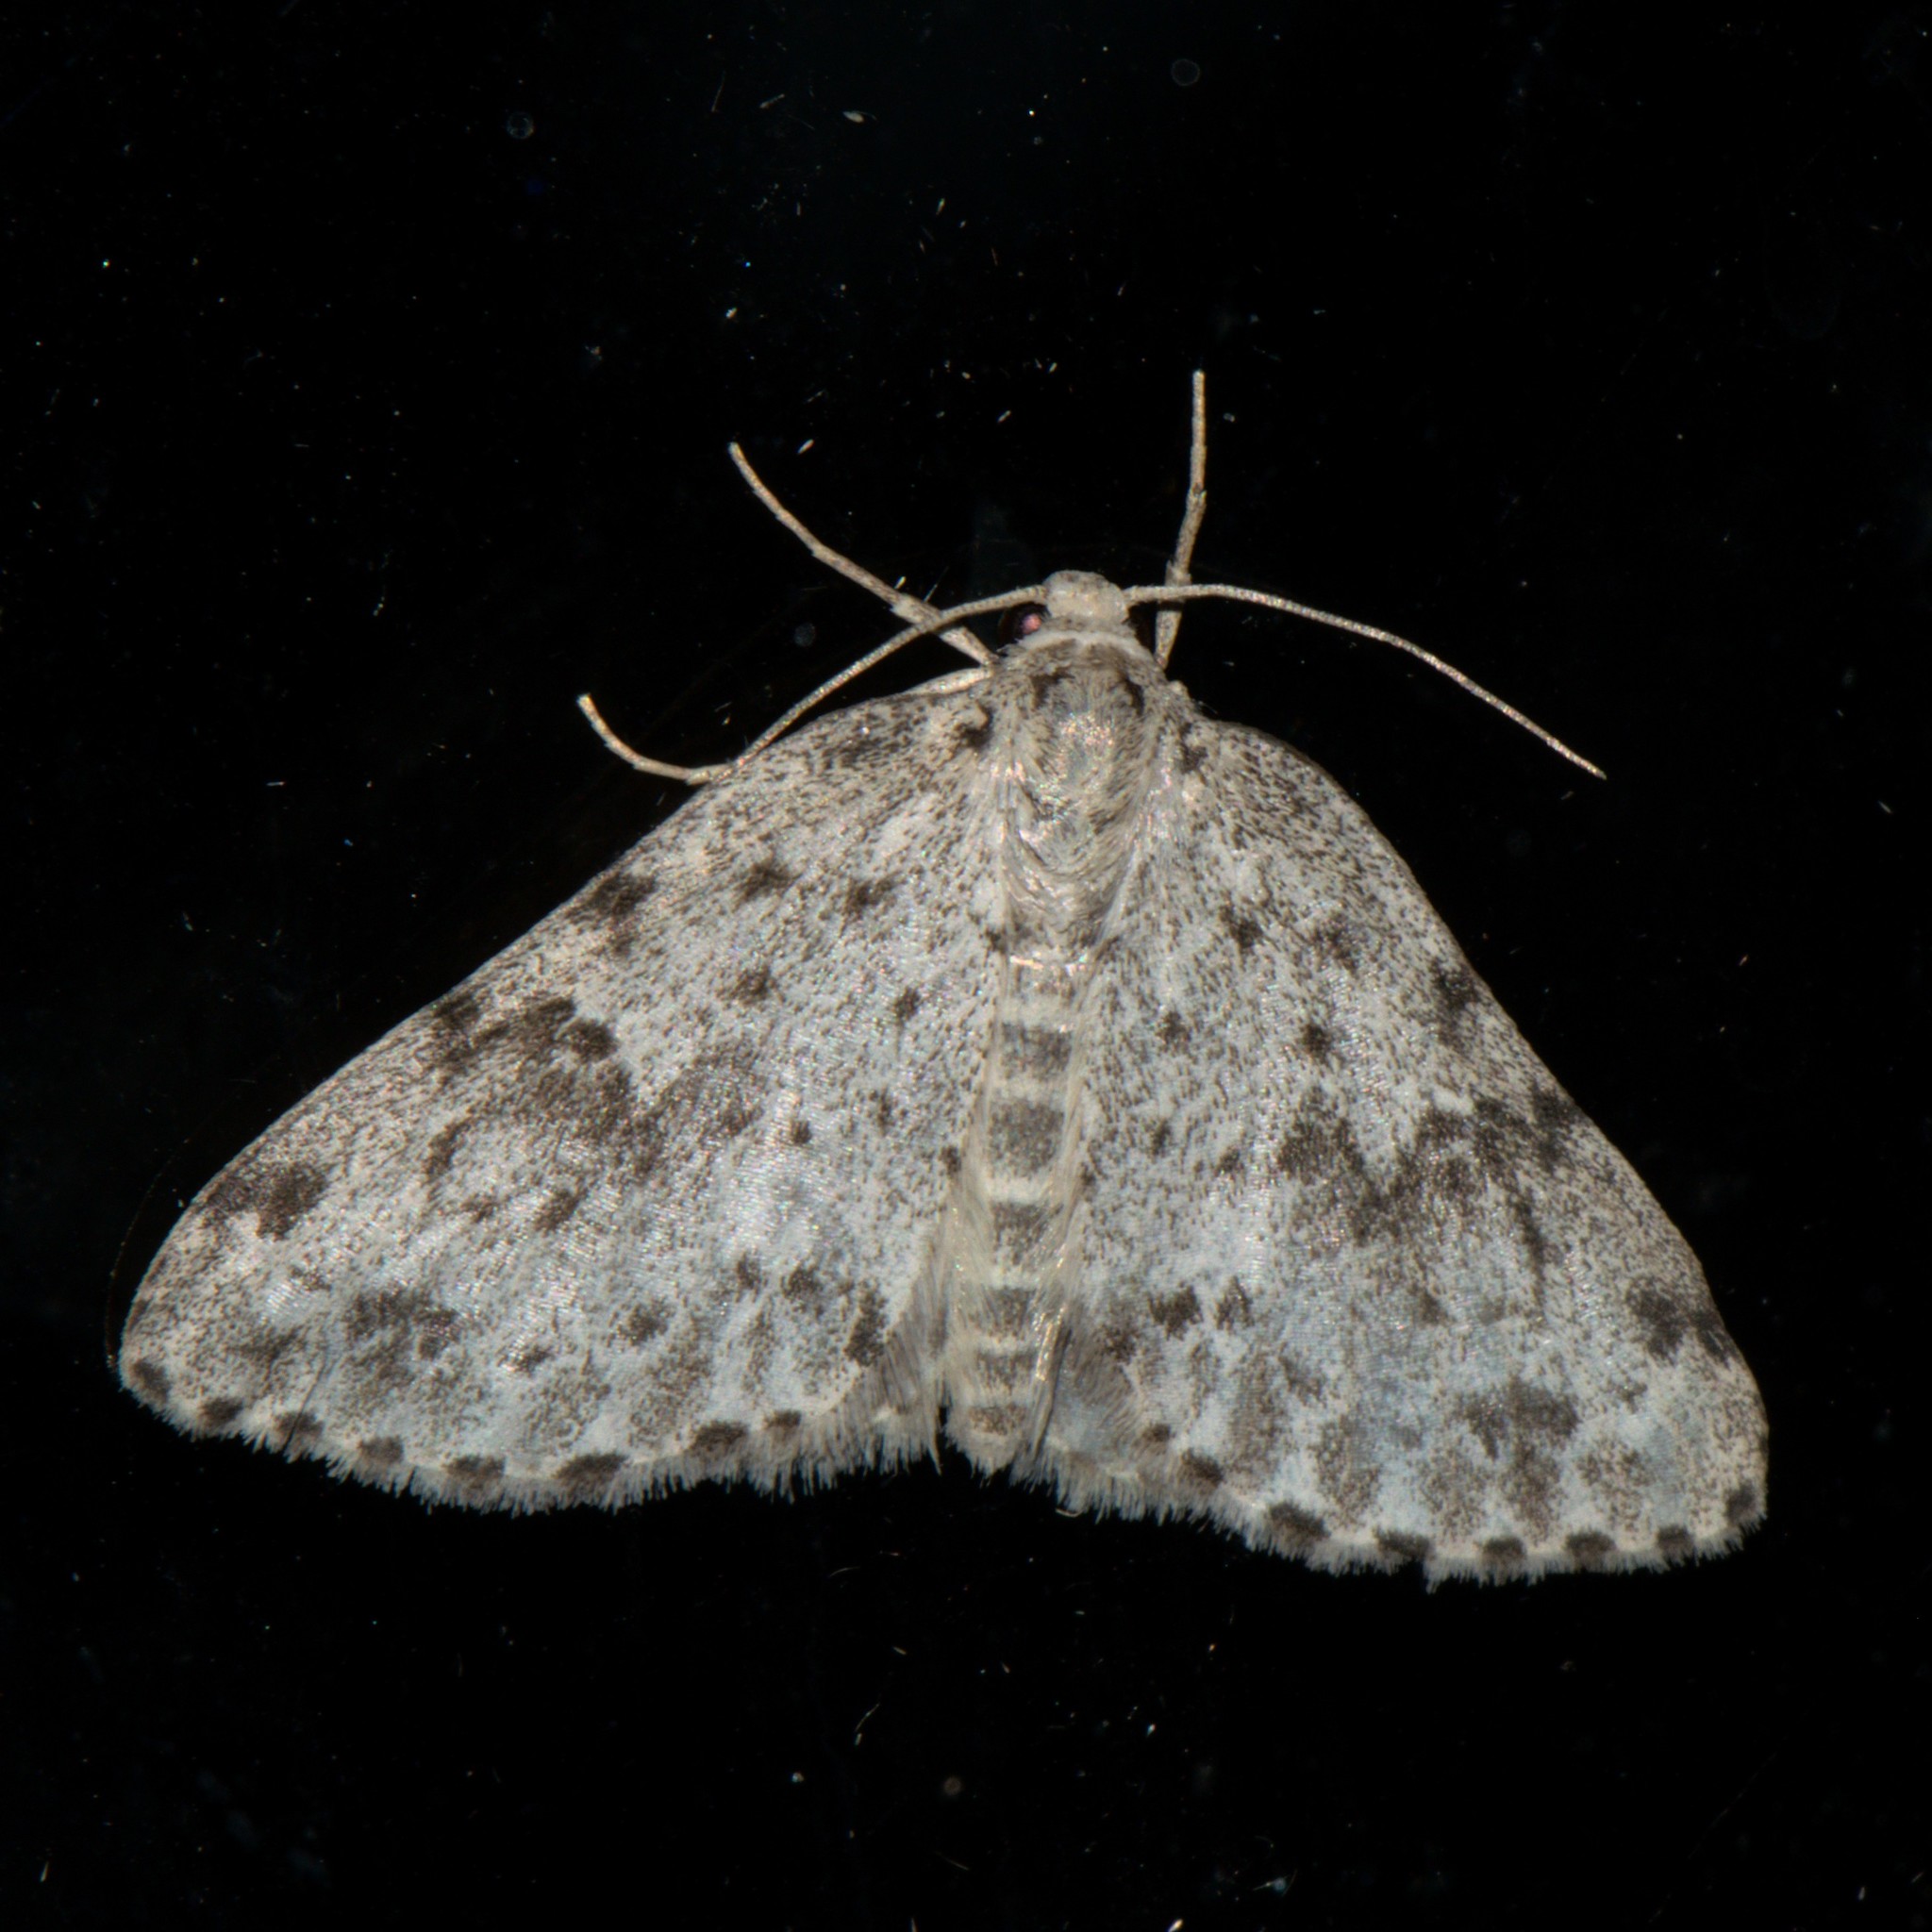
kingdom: Animalia
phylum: Arthropoda
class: Insecta
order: Lepidoptera
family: Geometridae
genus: Naxidia
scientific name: Naxidia punctata
